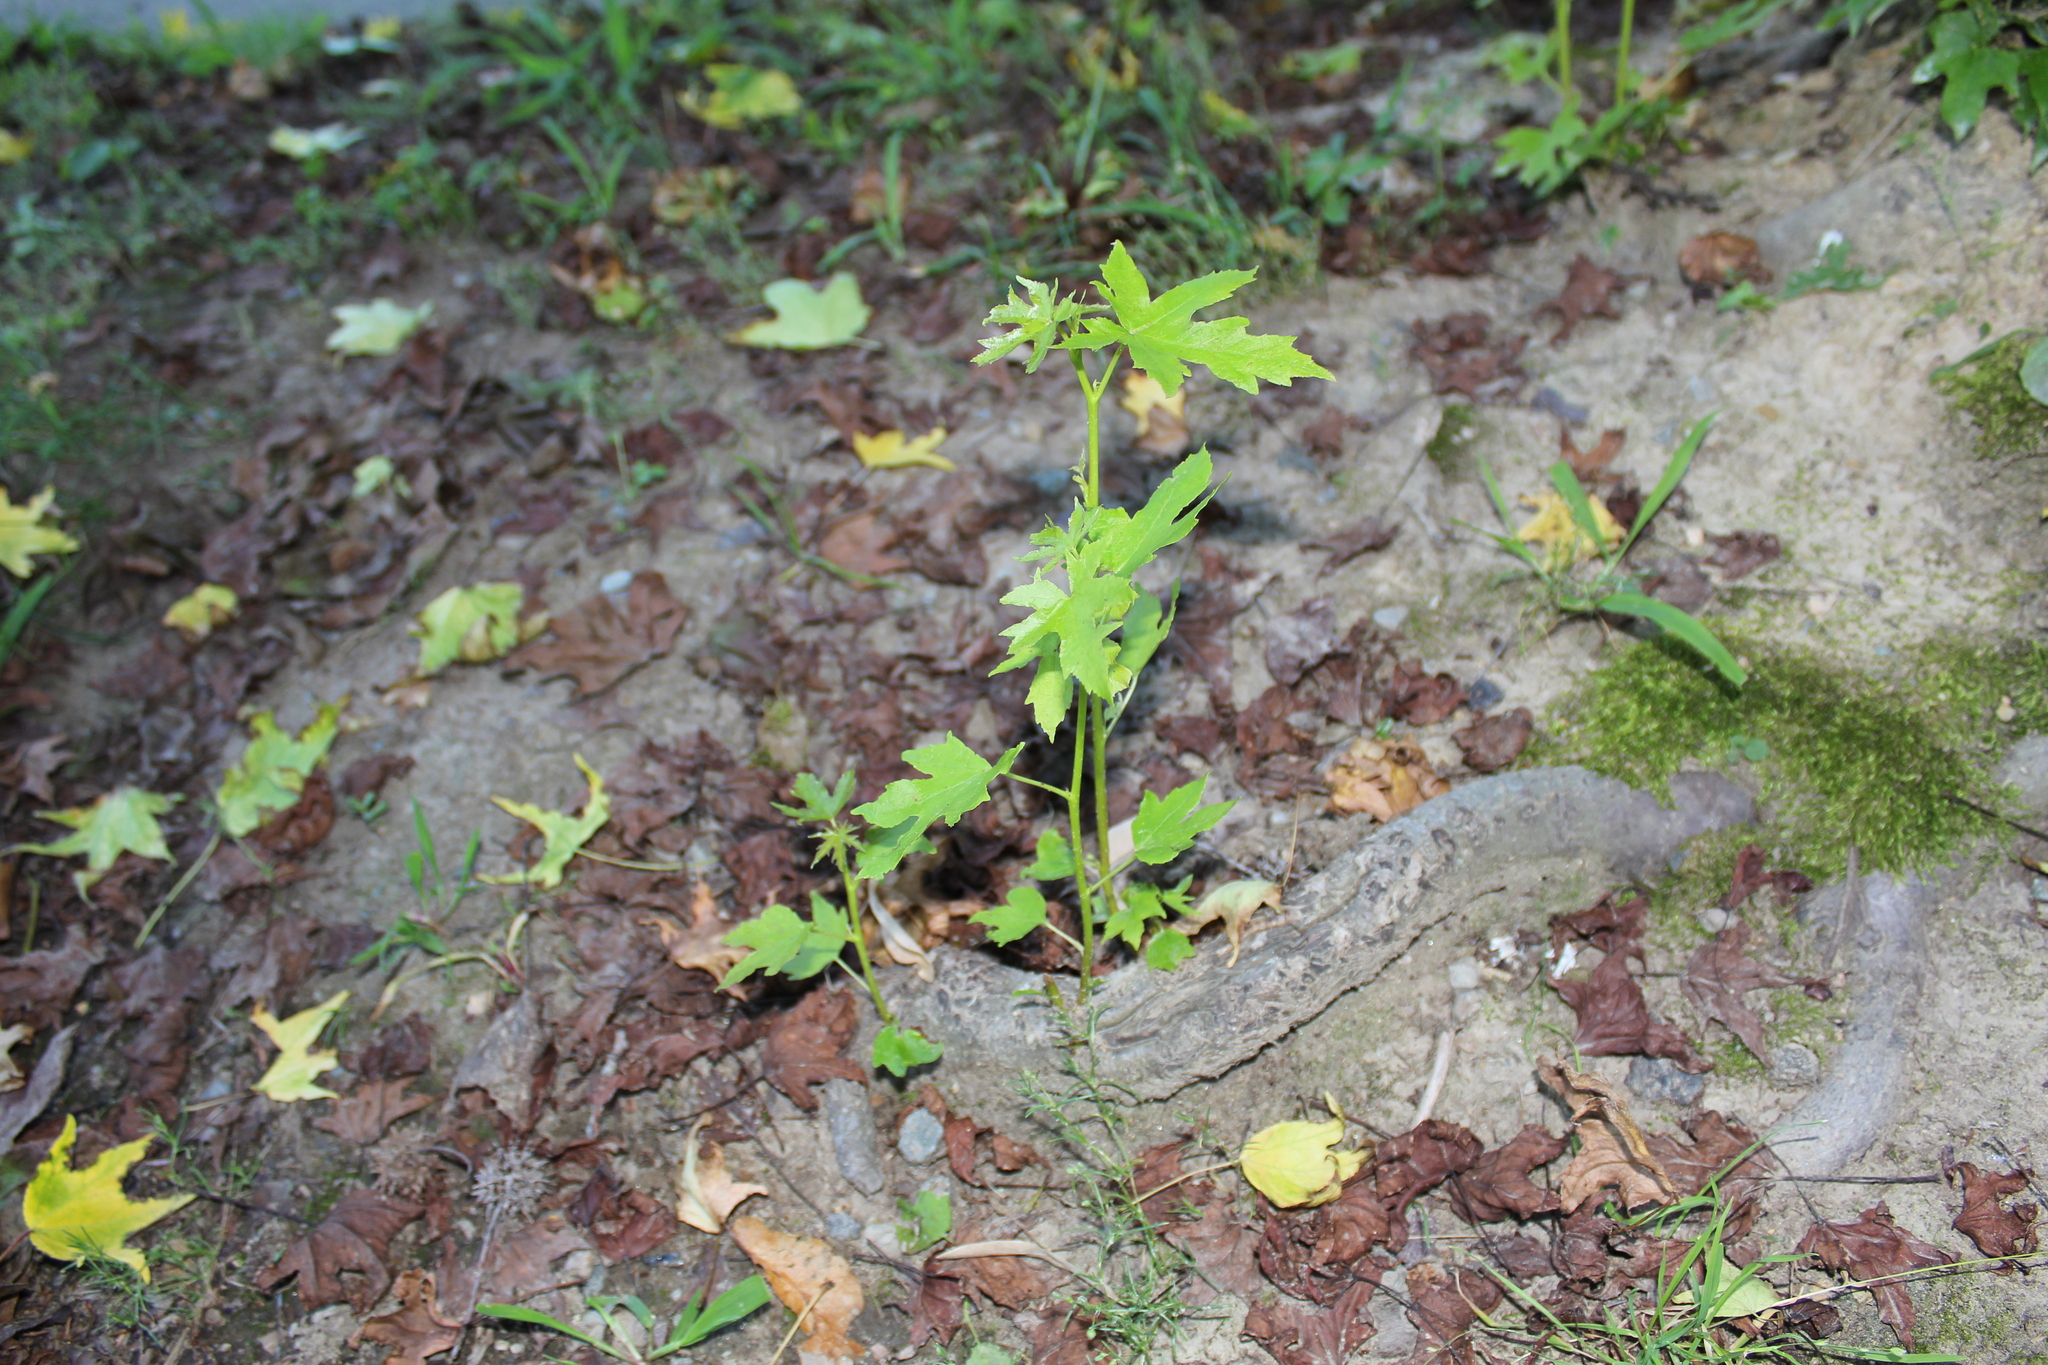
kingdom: Plantae
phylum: Tracheophyta
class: Magnoliopsida
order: Saxifragales
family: Altingiaceae
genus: Liquidambar
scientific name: Liquidambar styraciflua
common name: Sweet gum
